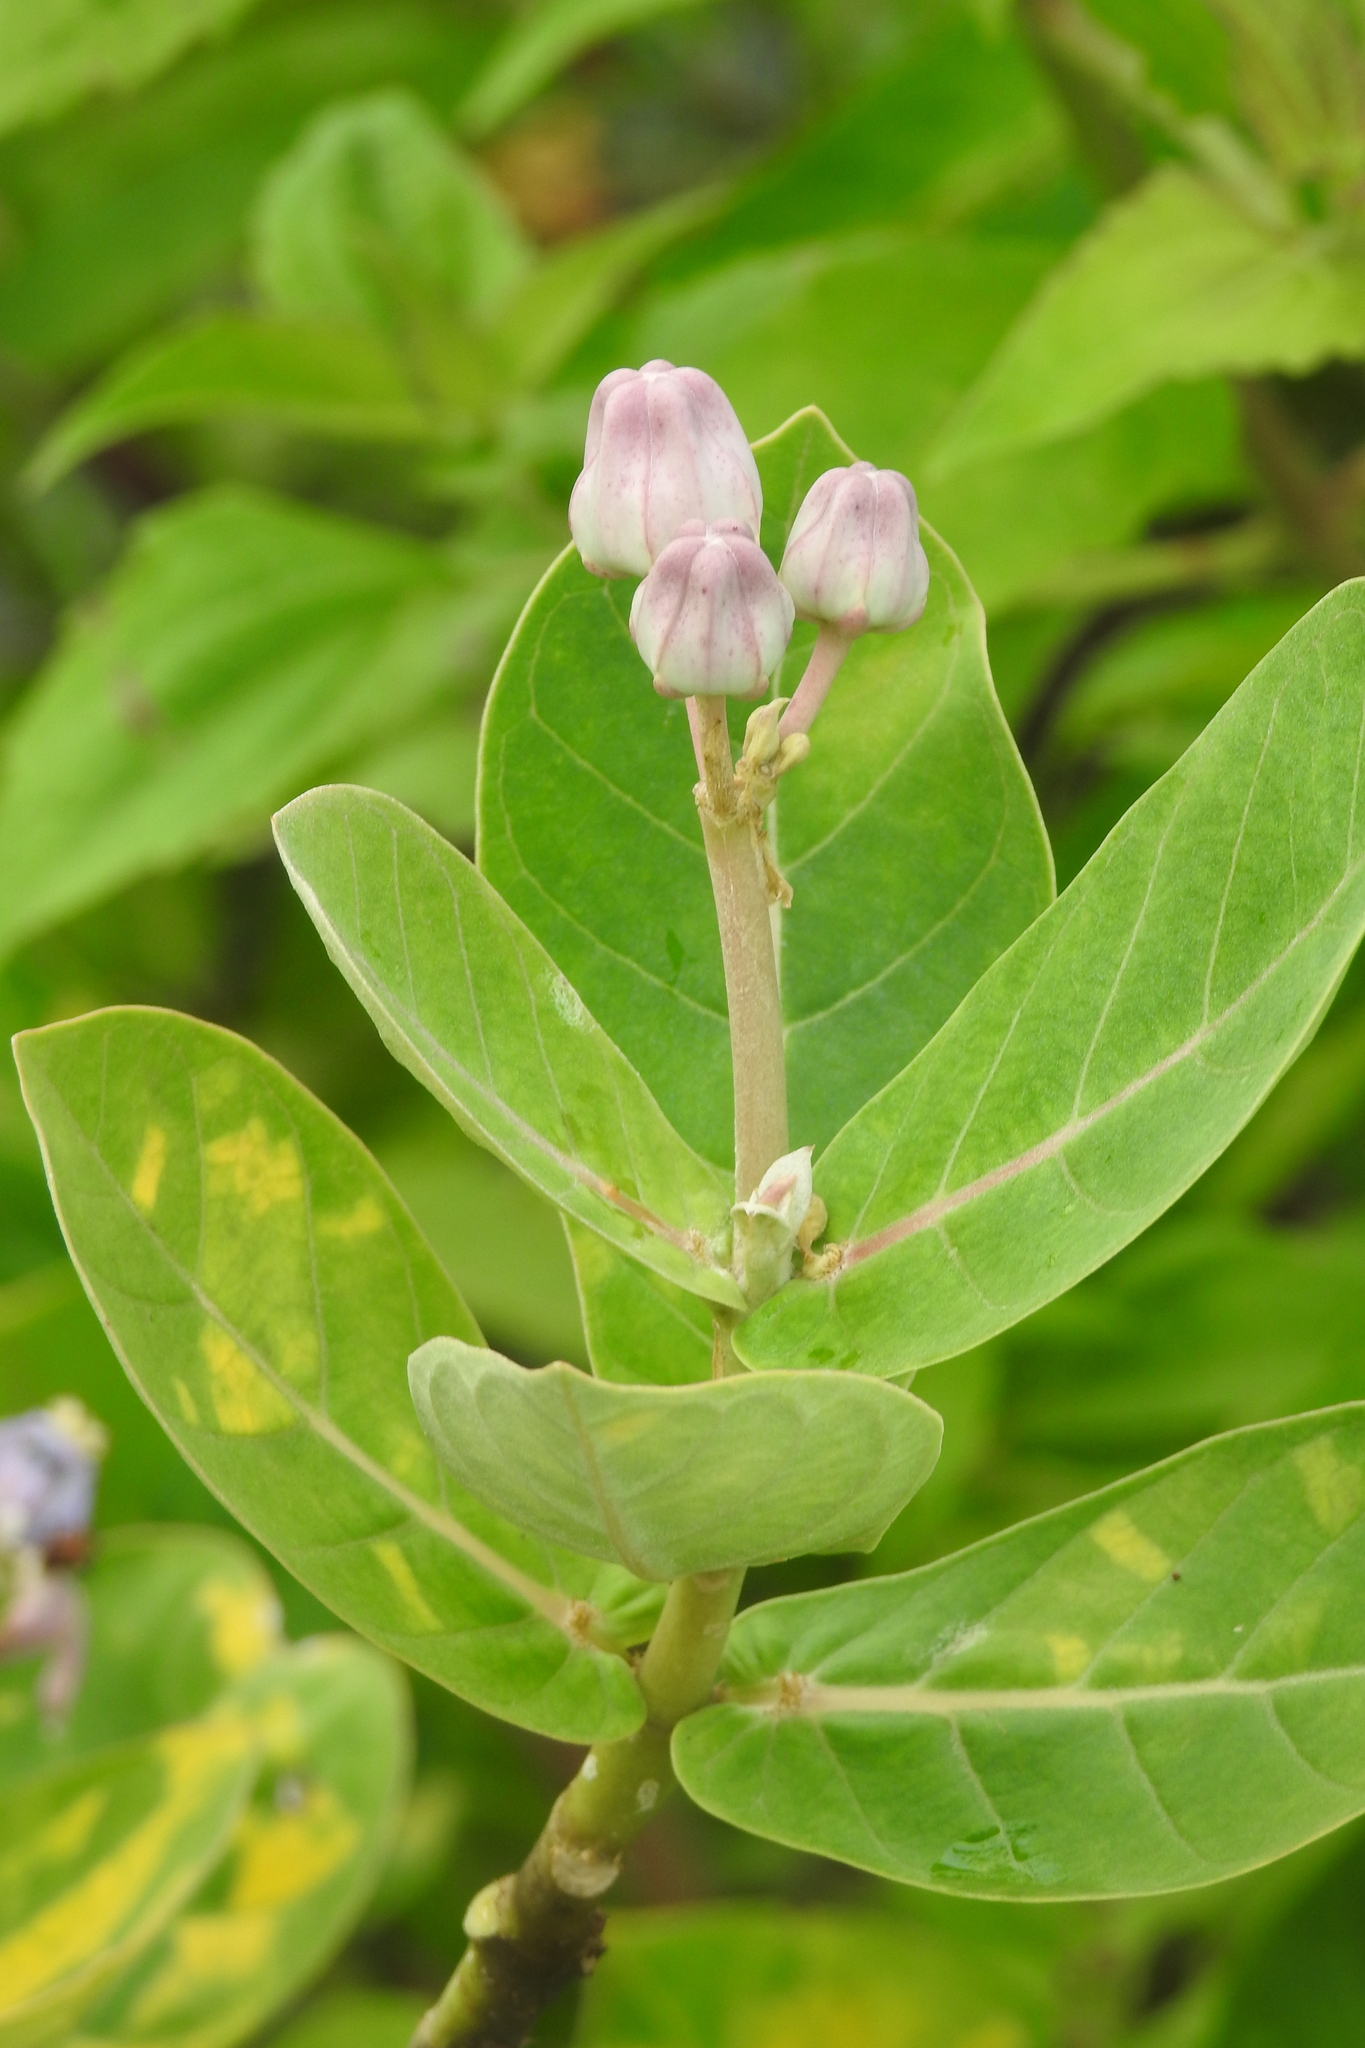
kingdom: Plantae
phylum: Tracheophyta
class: Magnoliopsida
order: Gentianales
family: Apocynaceae
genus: Calotropis
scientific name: Calotropis gigantea
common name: Crown flower
